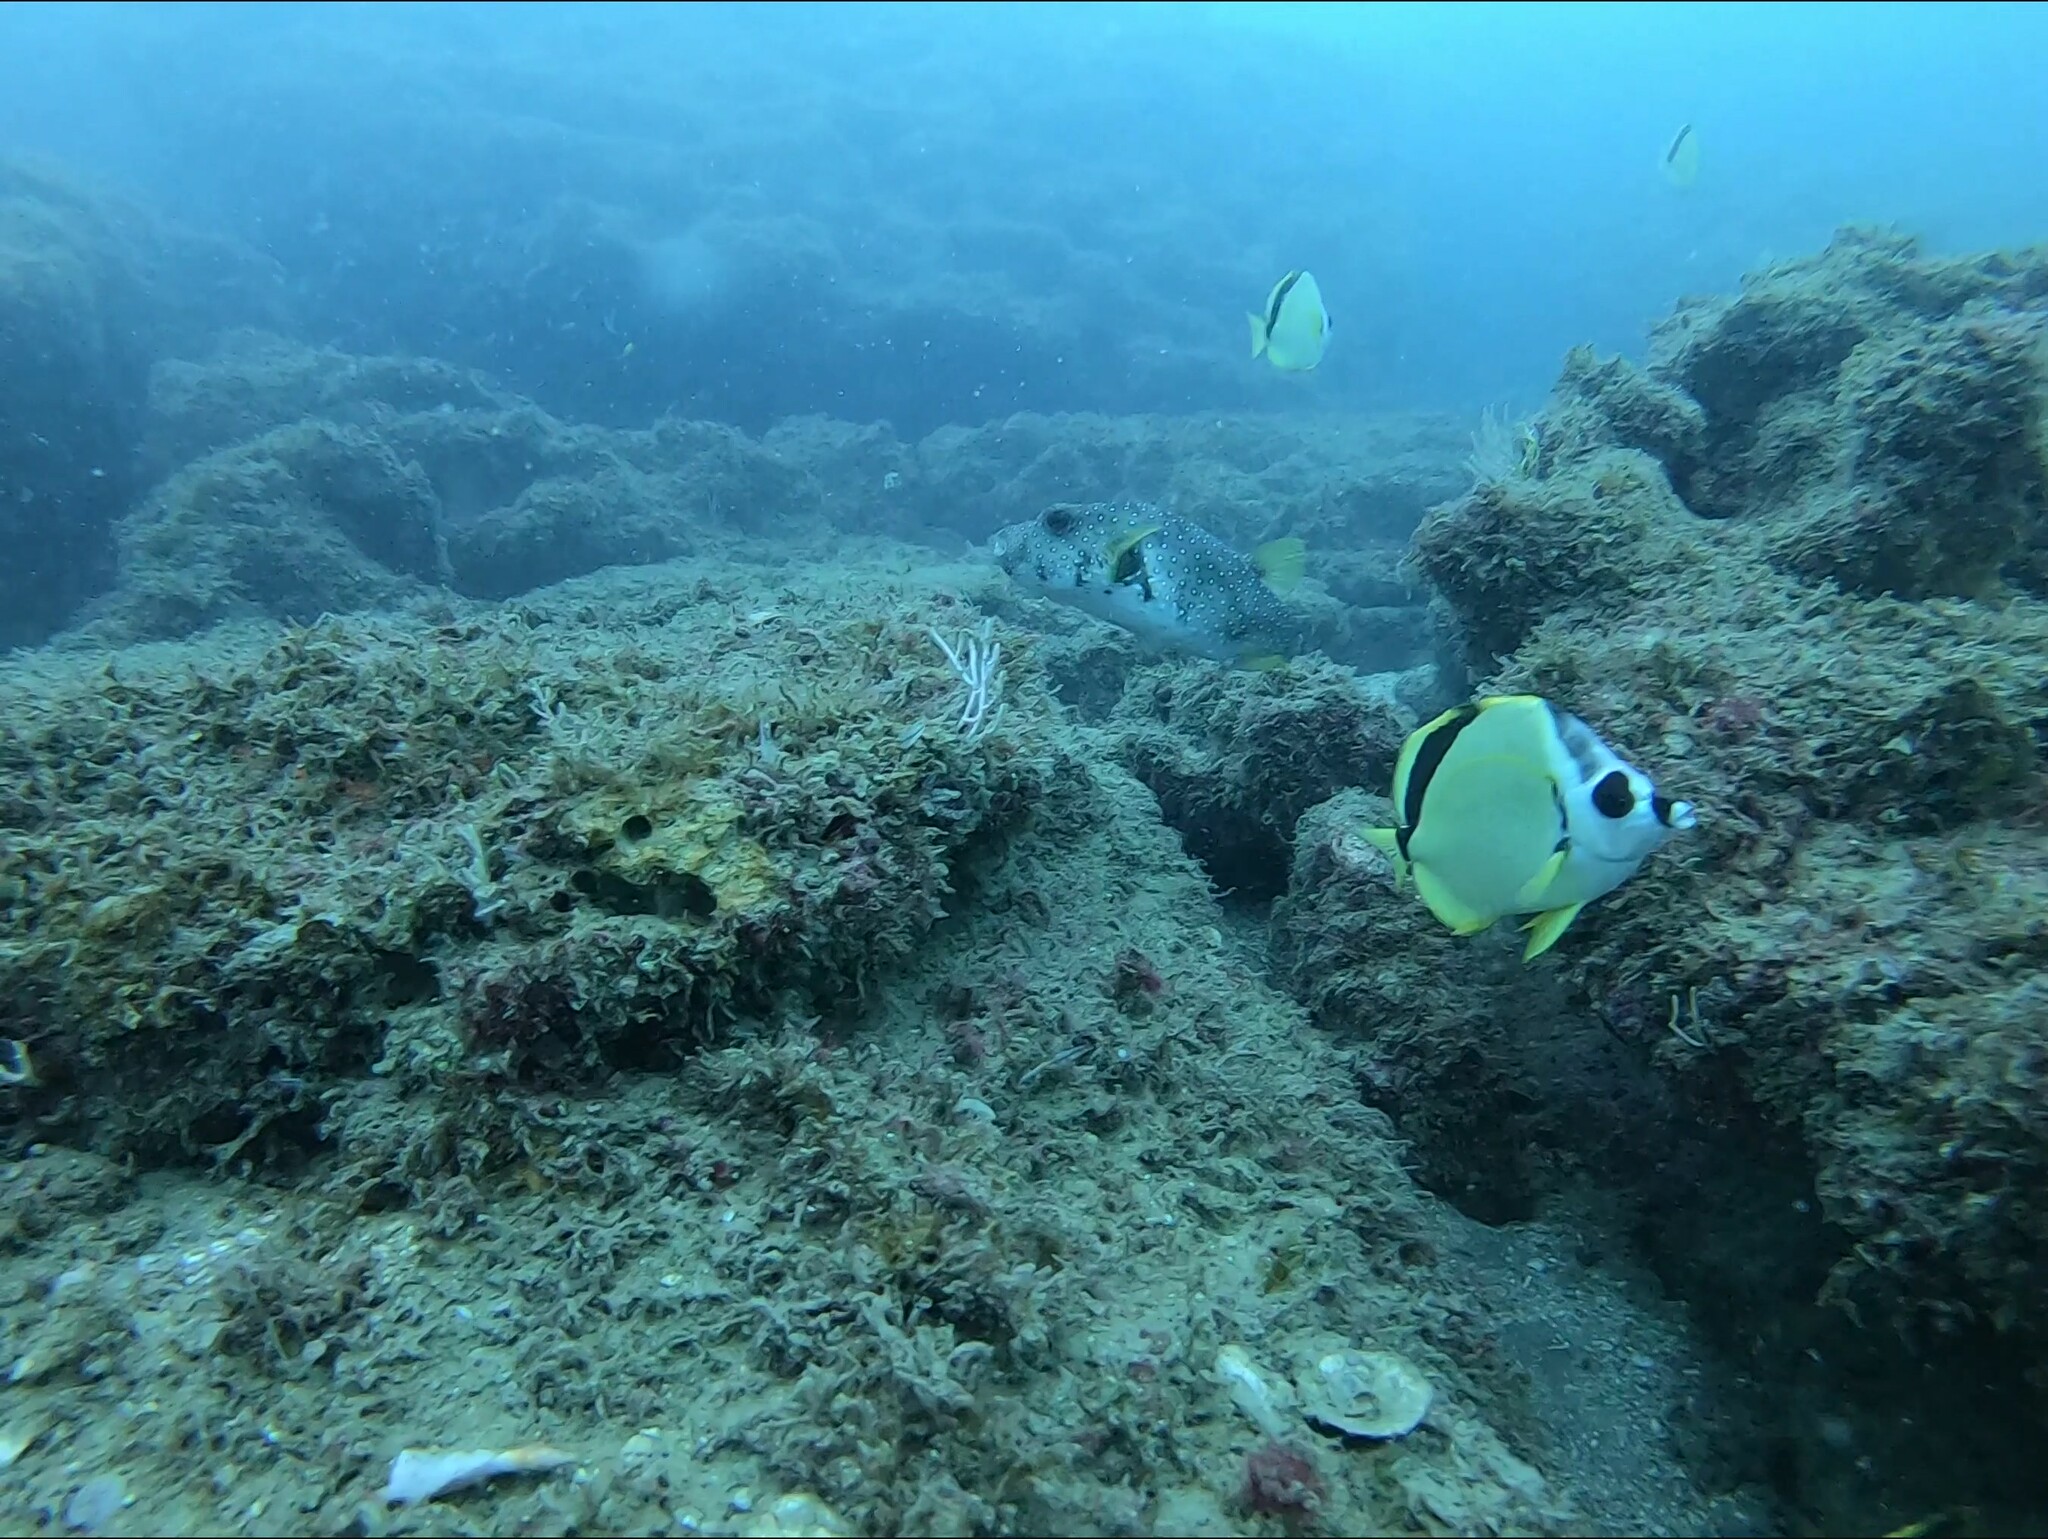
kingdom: Animalia
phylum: Chordata
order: Tetraodontiformes
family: Tetraodontidae
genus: Arothron
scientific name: Arothron hispidus
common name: Stripebelly puffer
